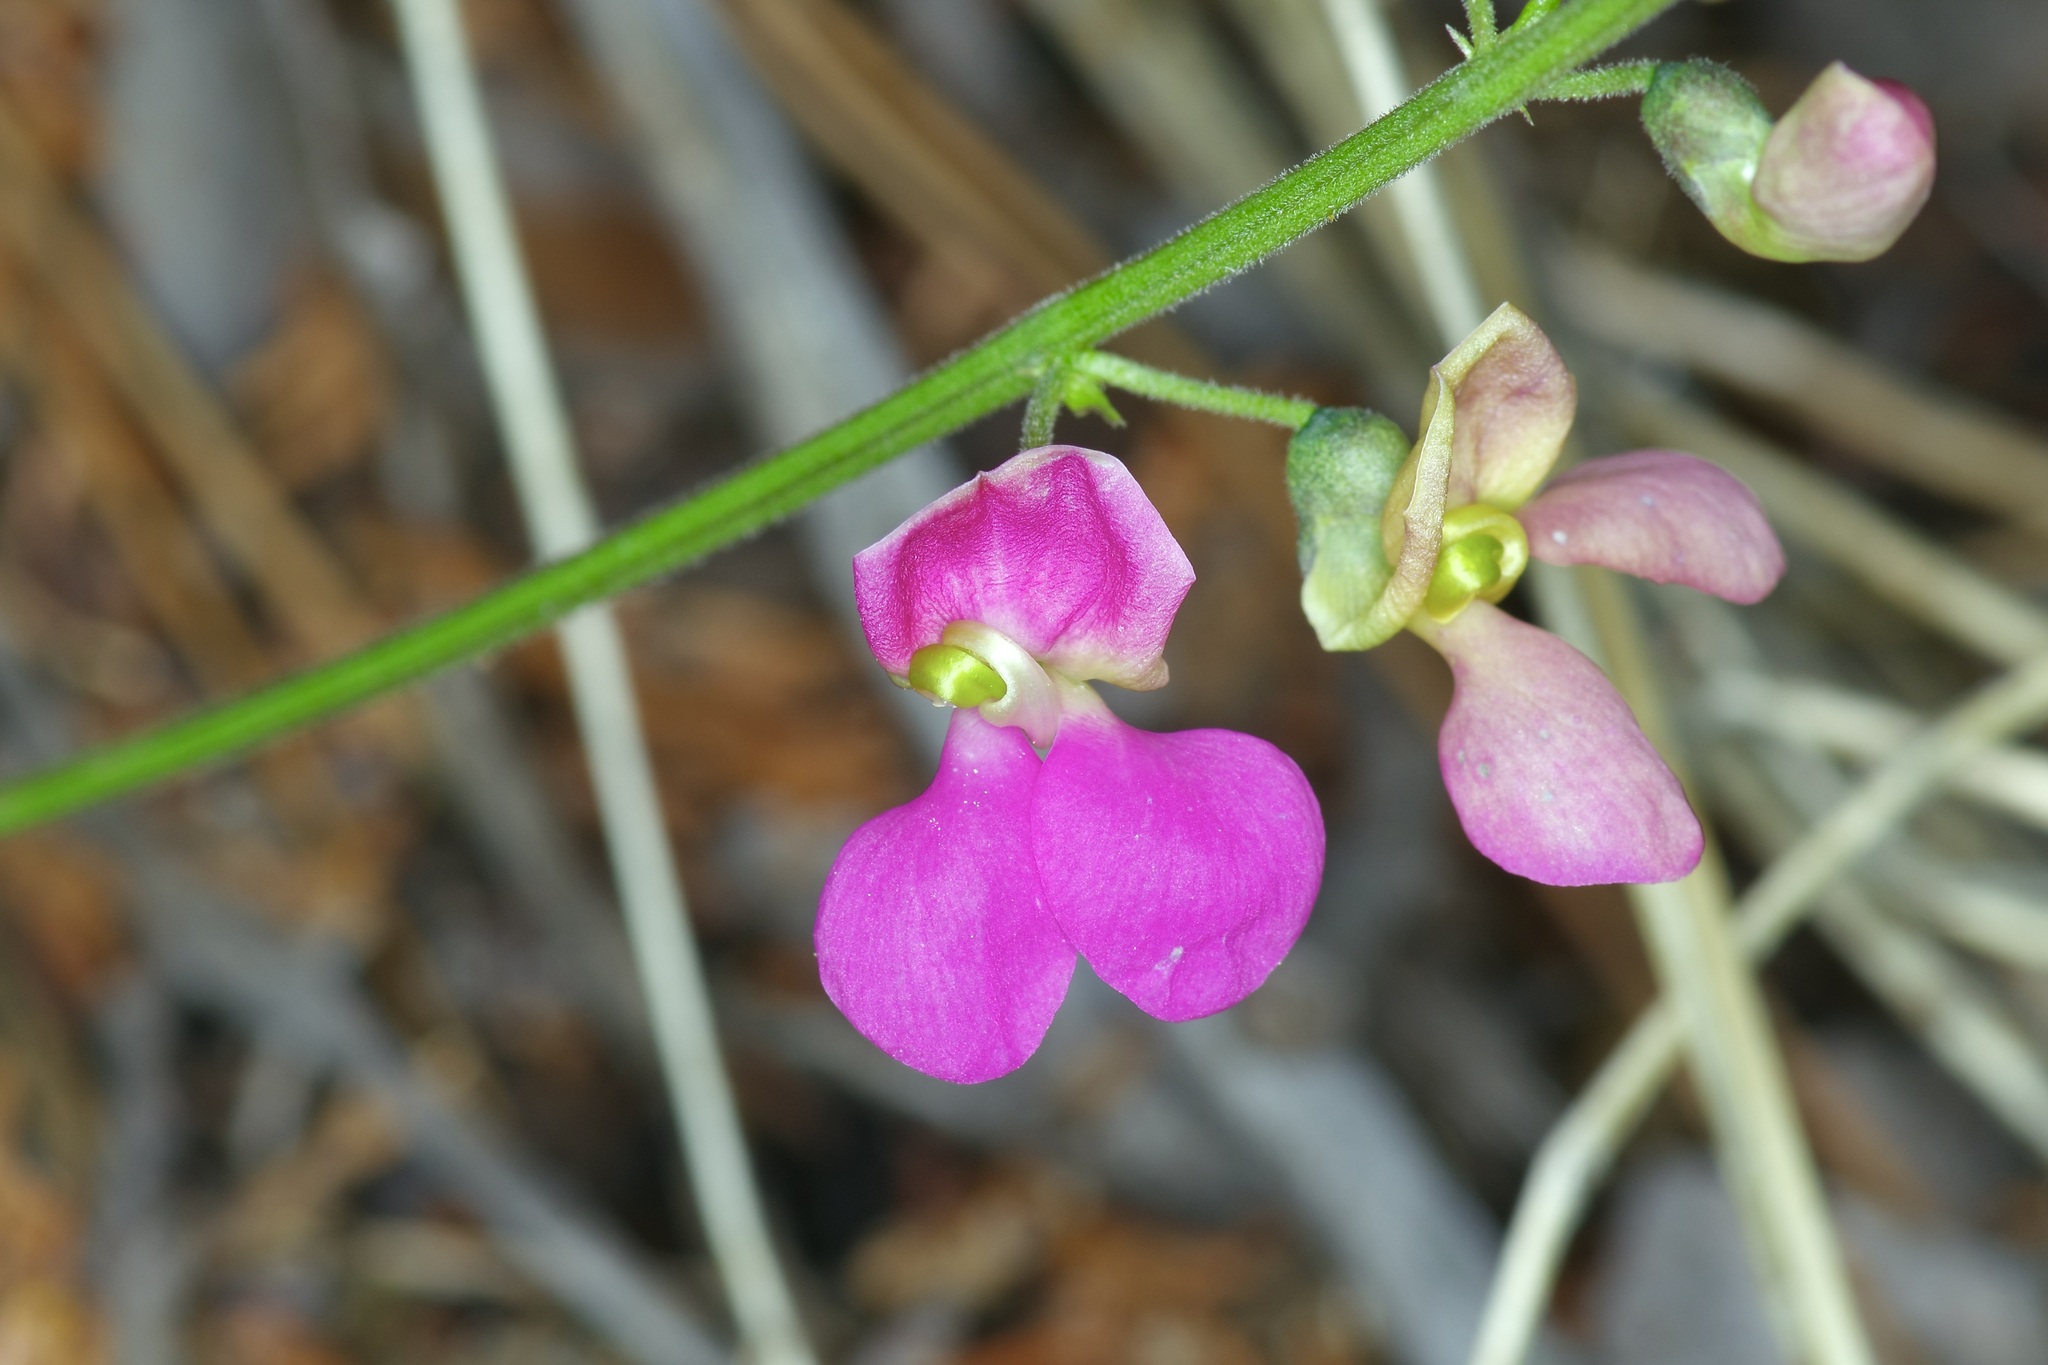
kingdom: Plantae
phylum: Tracheophyta
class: Magnoliopsida
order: Fabales
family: Fabaceae
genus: Phaseolus
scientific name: Phaseolus pedicellatus
